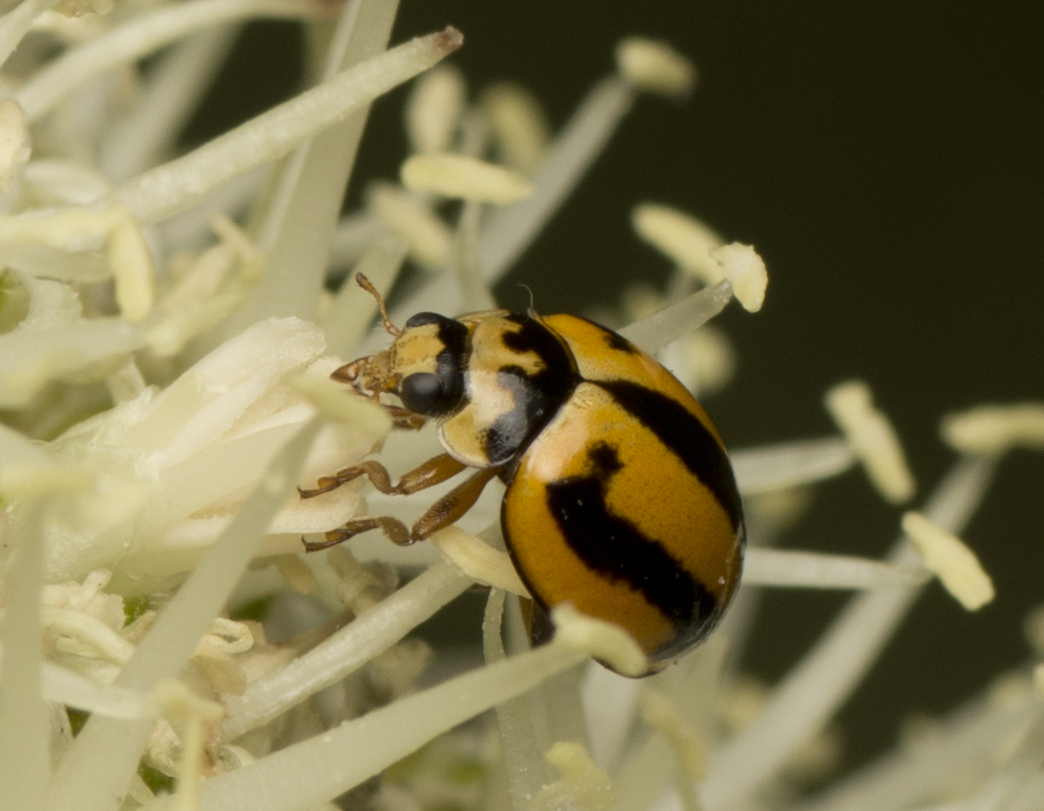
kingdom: Animalia
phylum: Arthropoda
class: Insecta
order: Coleoptera
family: Coccinellidae
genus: Micraspis
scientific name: Micraspis frenata
